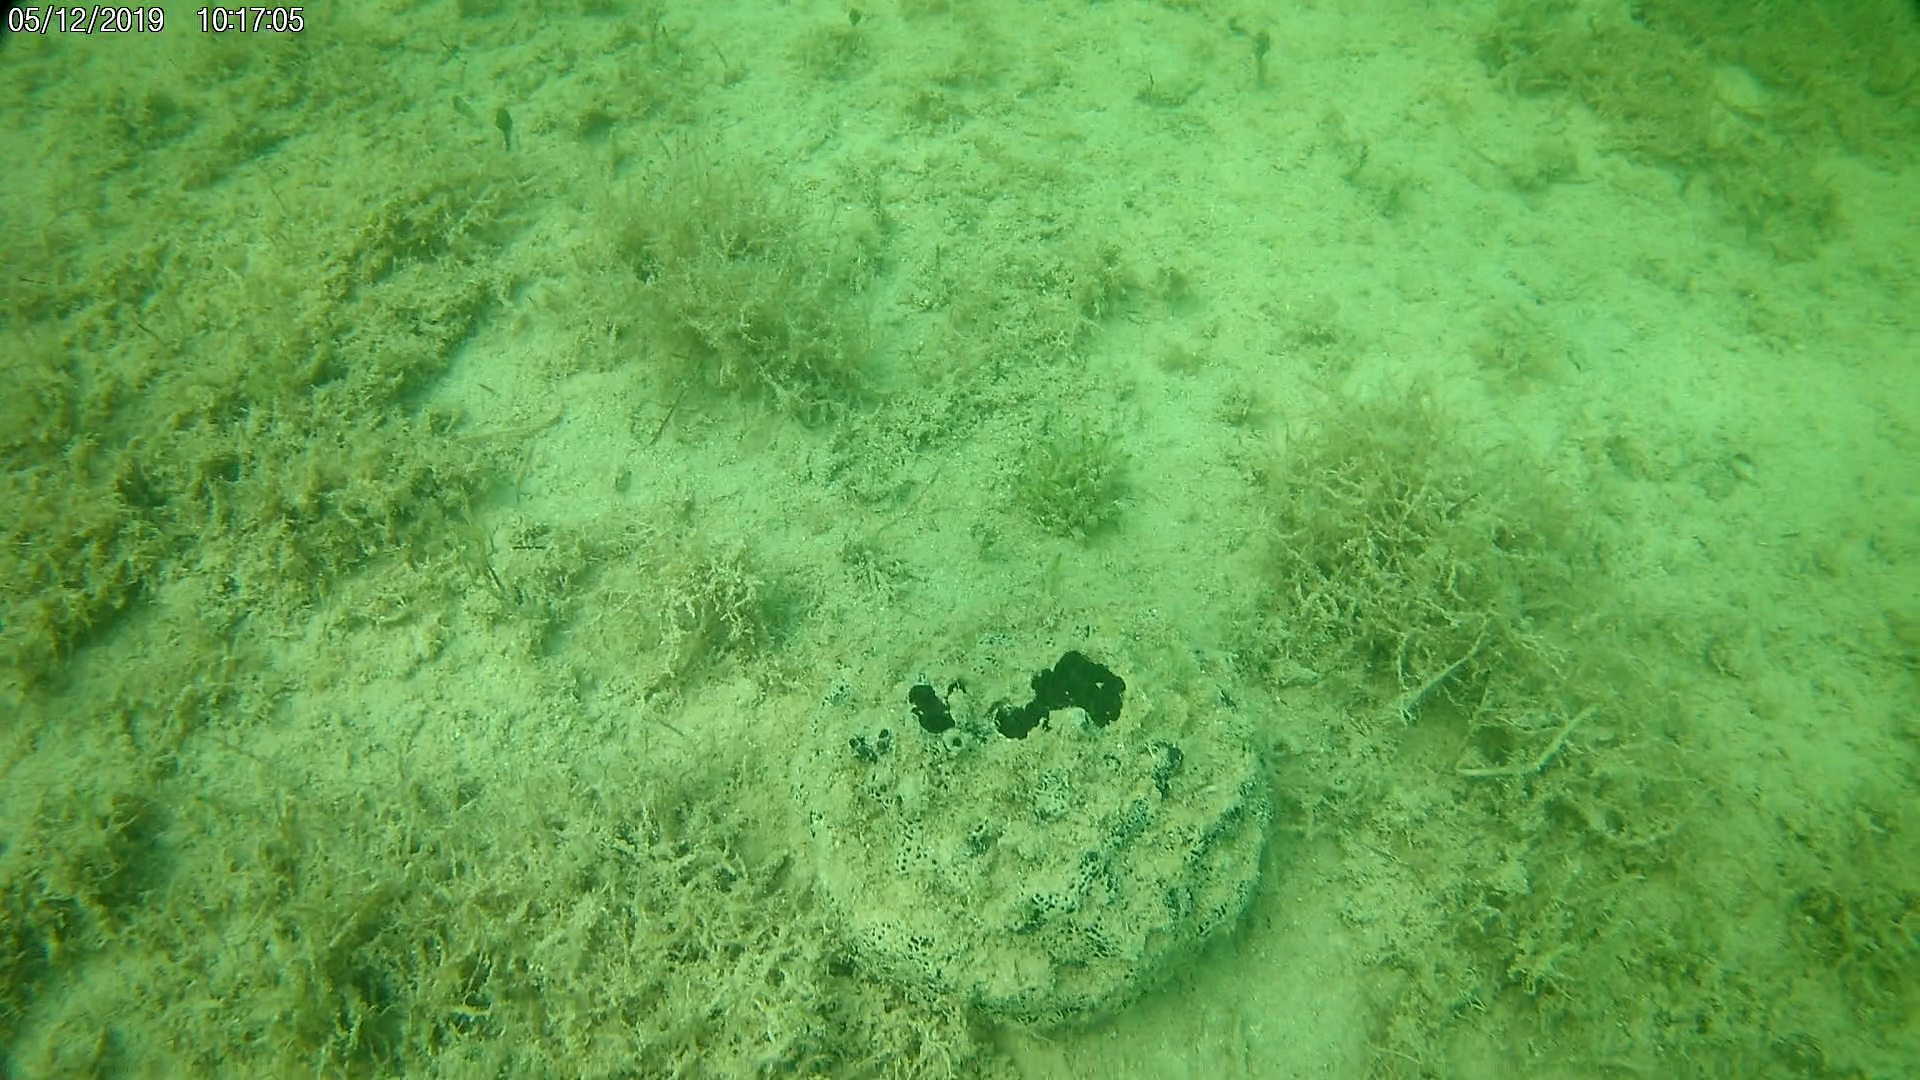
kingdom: Animalia
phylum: Porifera
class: Demospongiae
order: Clionaida
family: Clionaidae
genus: Spheciospongia
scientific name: Spheciospongia vesparium
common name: Manjack
